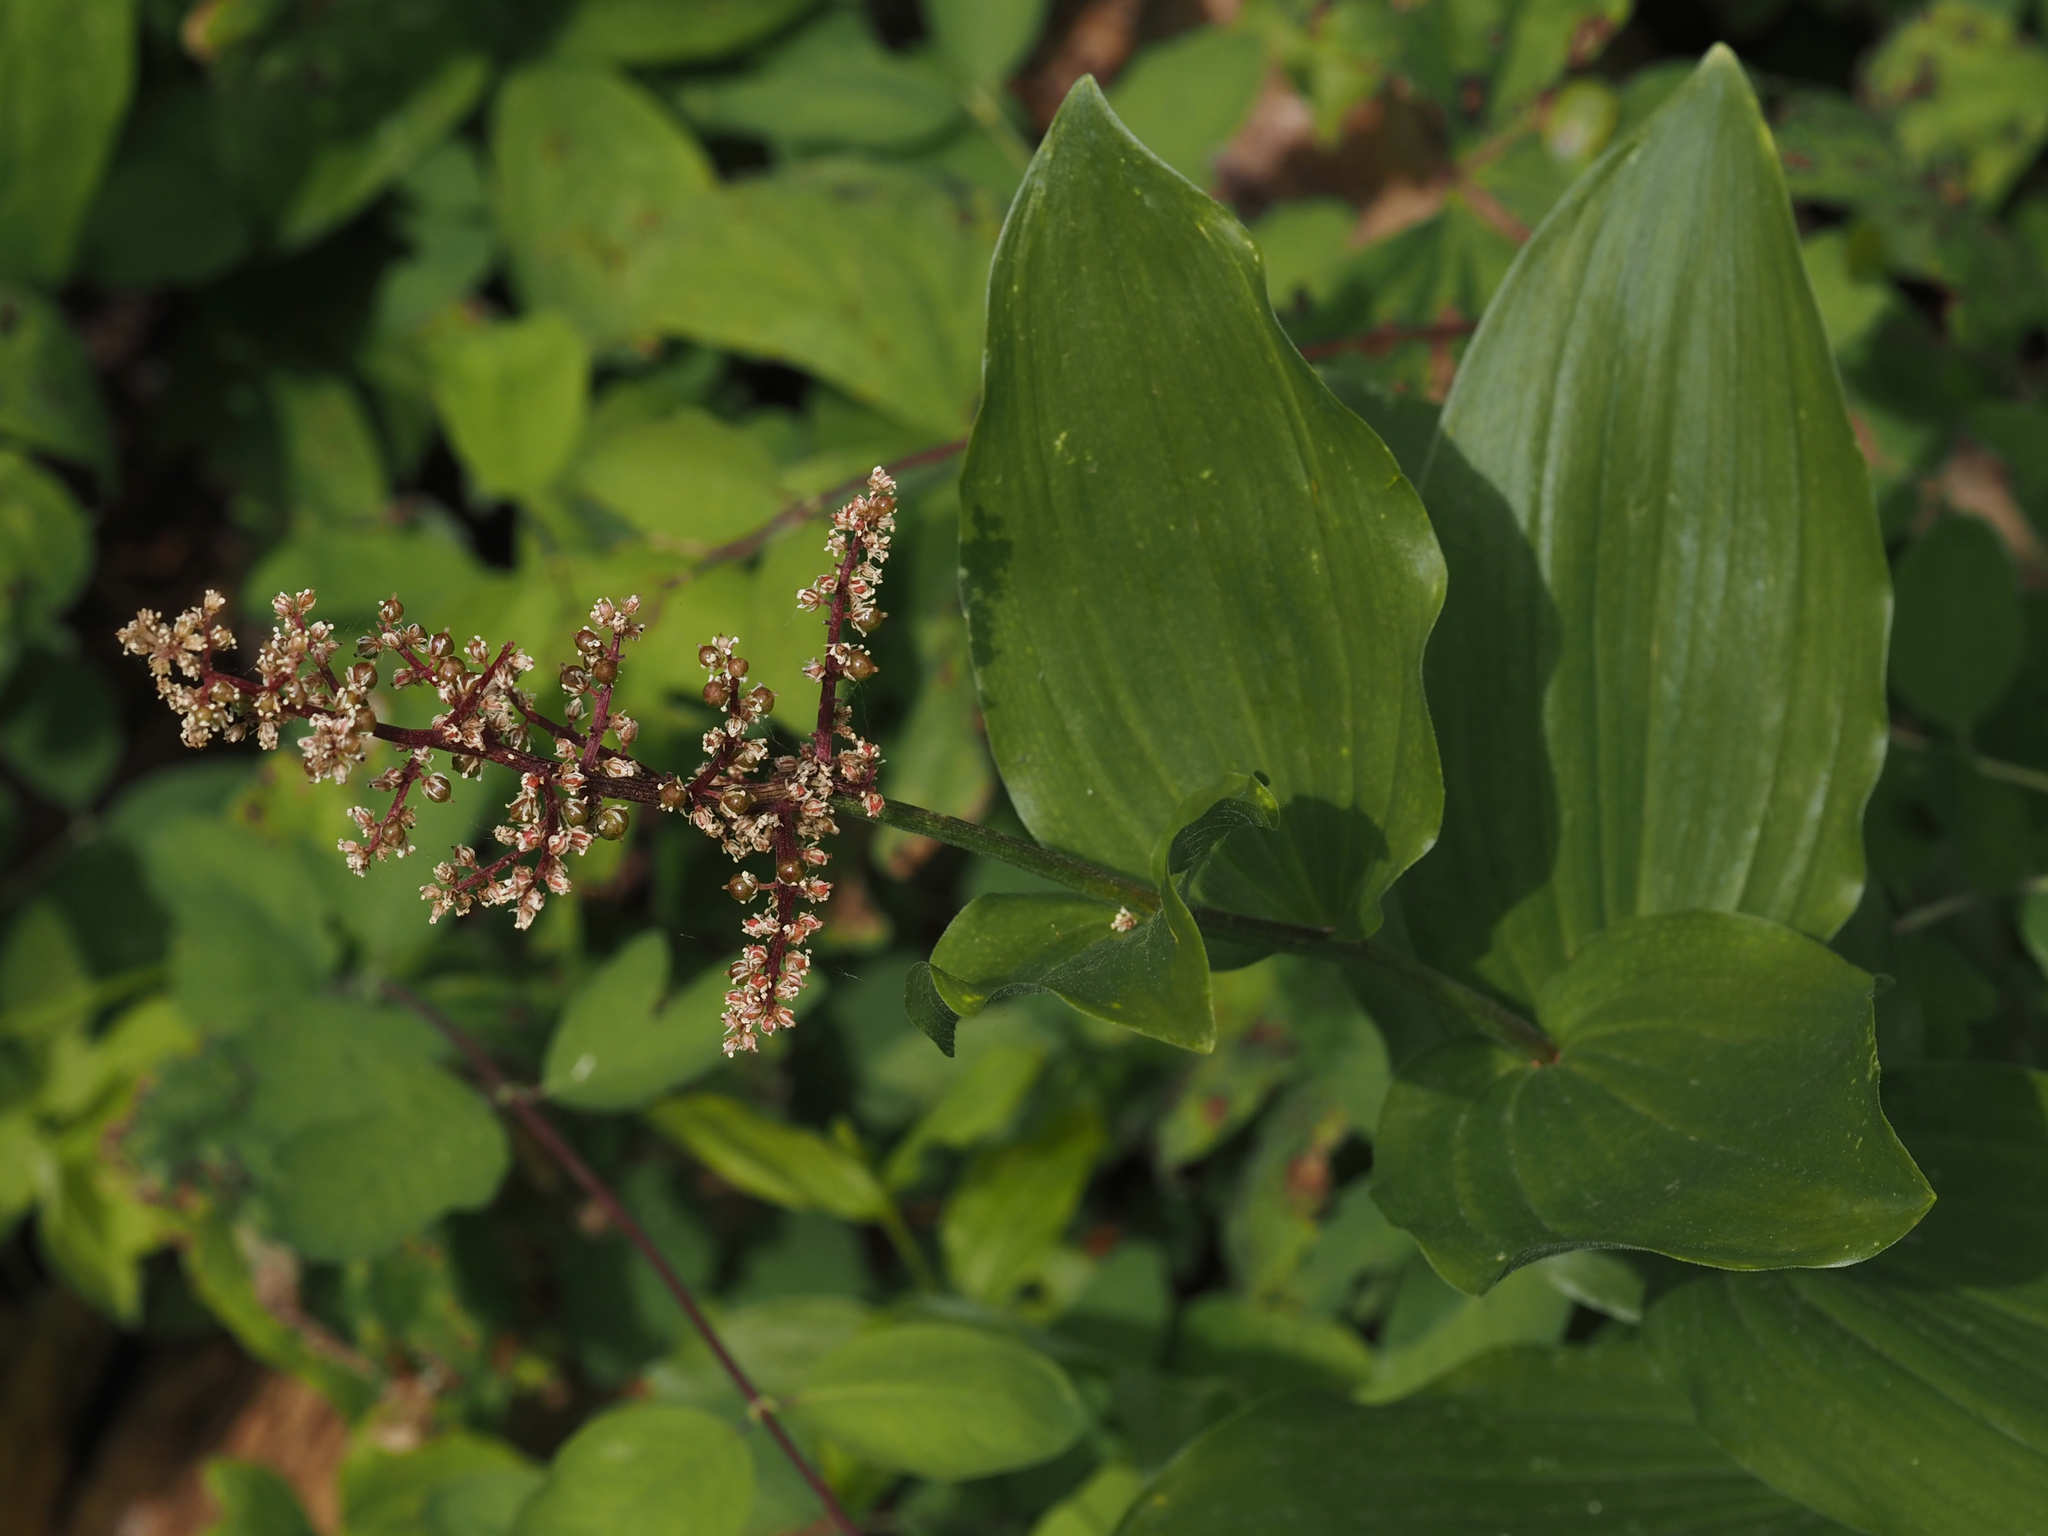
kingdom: Plantae
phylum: Tracheophyta
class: Liliopsida
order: Asparagales
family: Asparagaceae
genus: Maianthemum
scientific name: Maianthemum racemosum
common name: False spikenard
